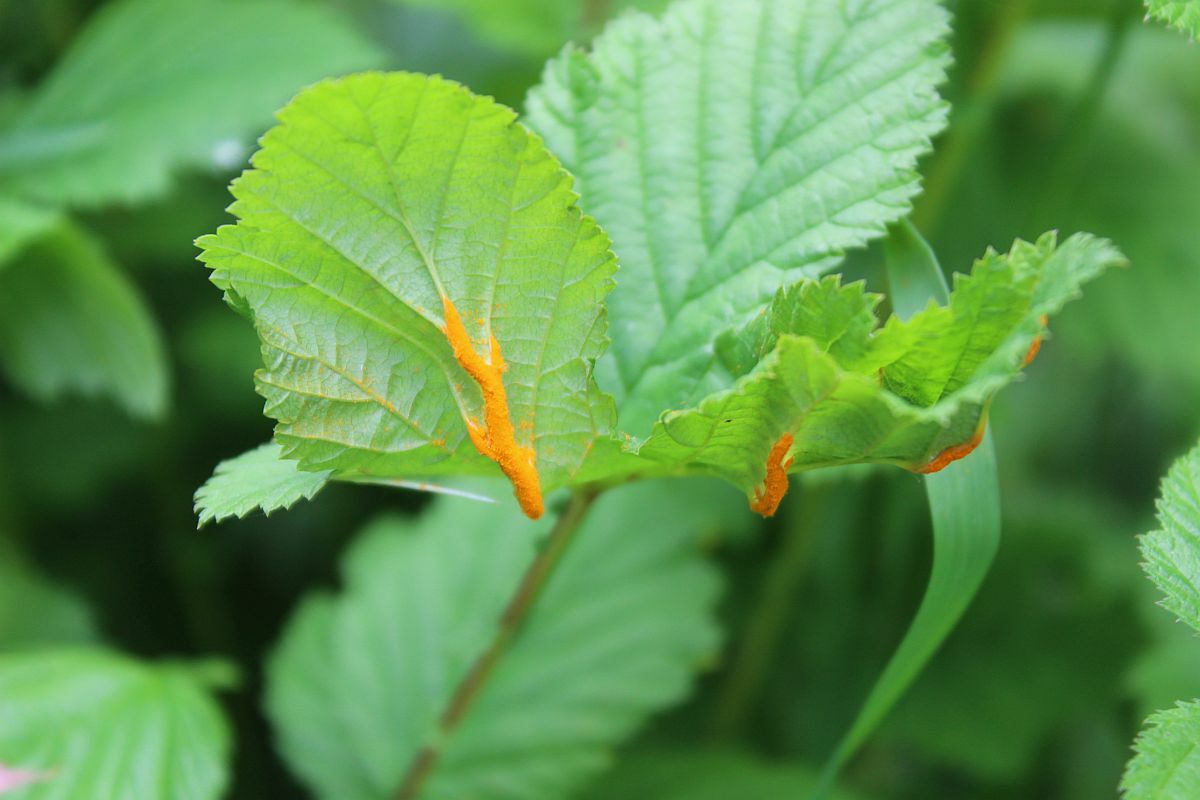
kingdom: Fungi
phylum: Basidiomycota
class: Pucciniomycetes
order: Pucciniales
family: Raveneliaceae
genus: Triphragmium
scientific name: Triphragmium ulmariae
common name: Meadowsweet rust
